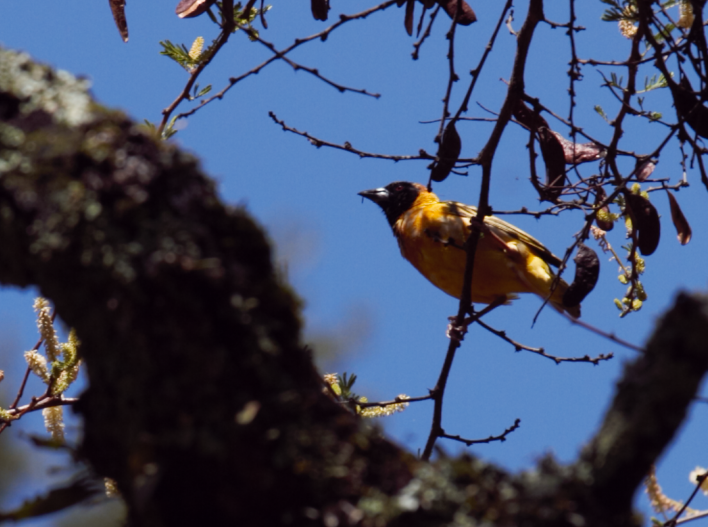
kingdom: Animalia
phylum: Chordata
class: Aves
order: Passeriformes
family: Ploceidae
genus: Ploceus
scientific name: Ploceus cucullatus
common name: Village weaver
